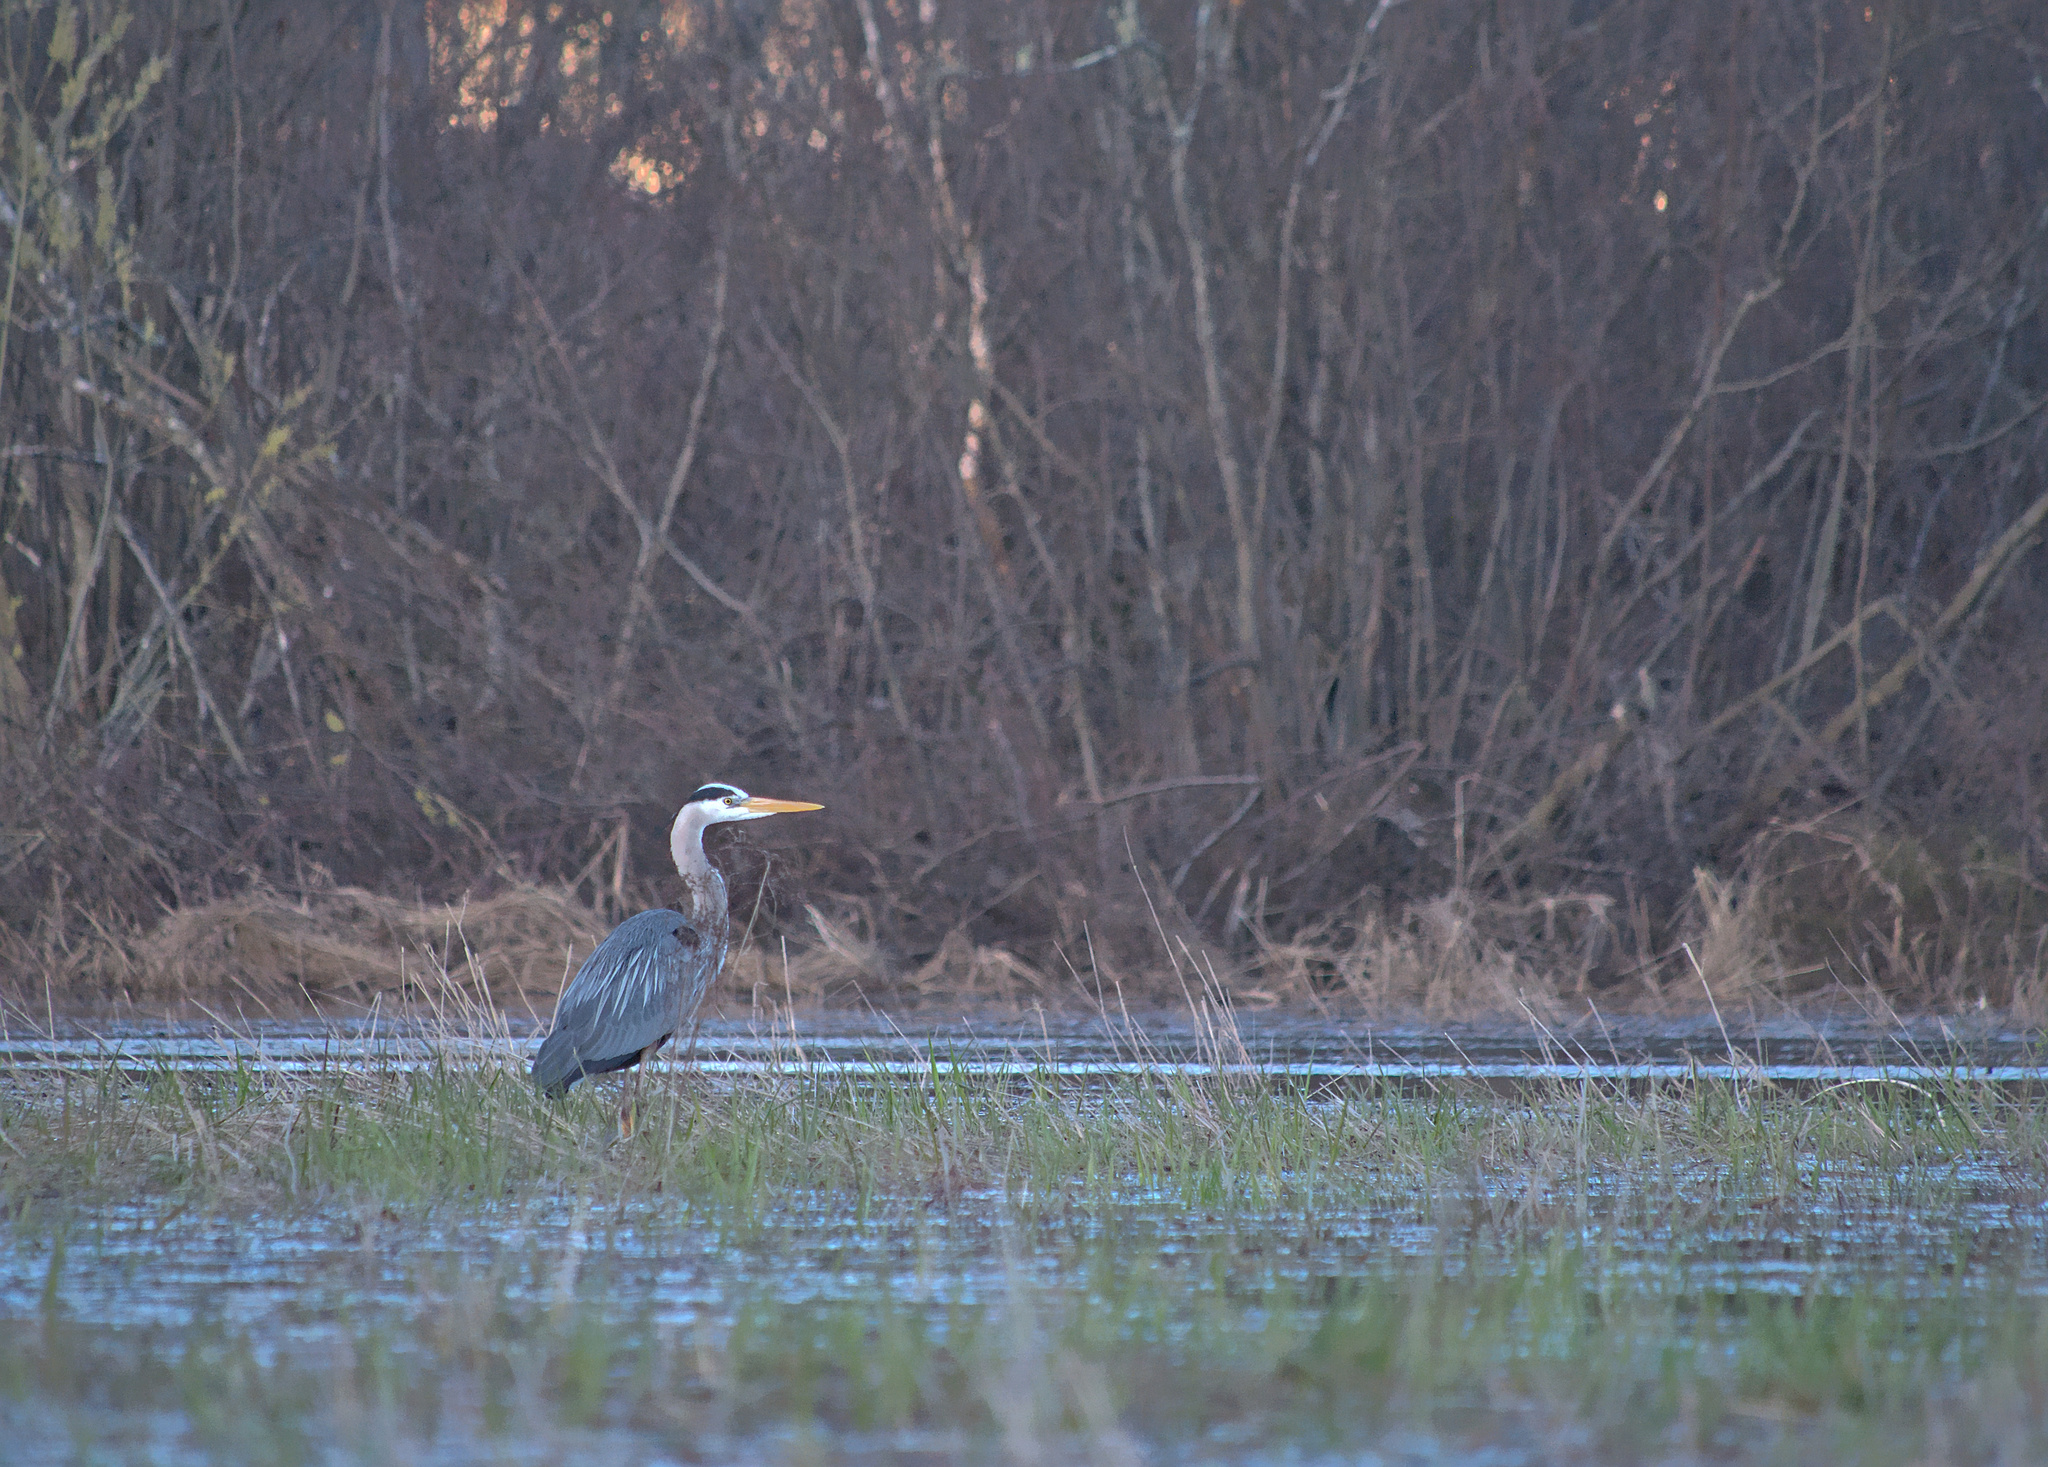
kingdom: Animalia
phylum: Chordata
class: Aves
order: Pelecaniformes
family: Ardeidae
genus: Ardea
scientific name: Ardea herodias
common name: Great blue heron
